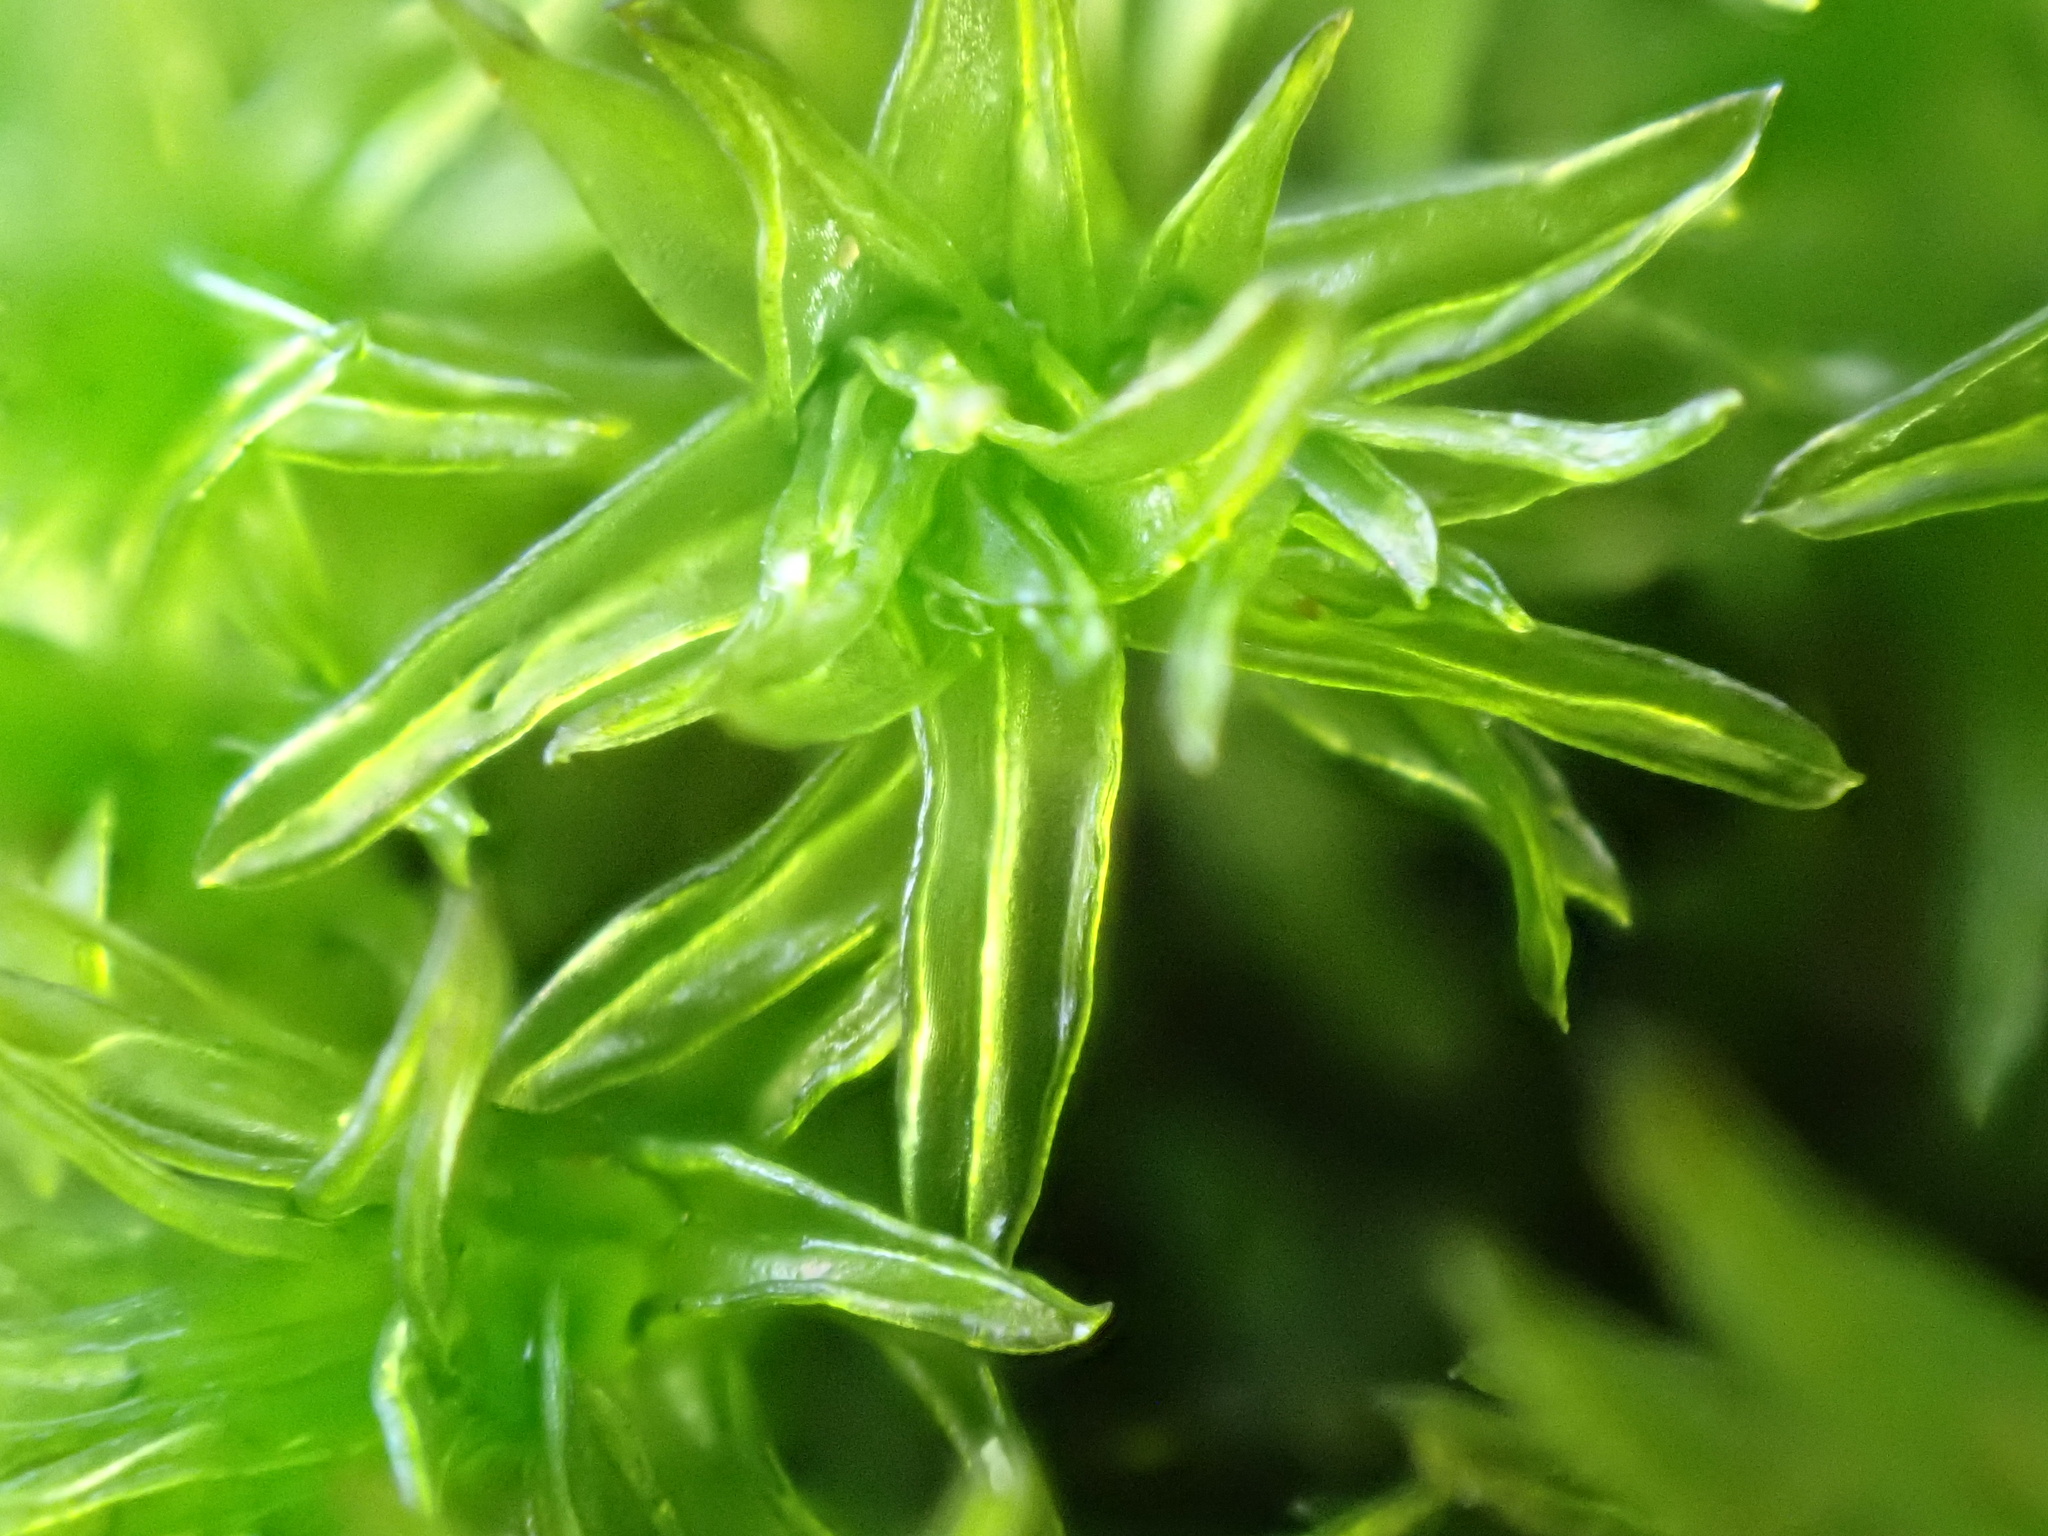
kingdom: Plantae
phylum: Bryophyta
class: Bryopsida
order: Orthotrichales
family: Orthotrichaceae
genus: Lewinskya
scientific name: Lewinskya affinis
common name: Wood bristle-moss
